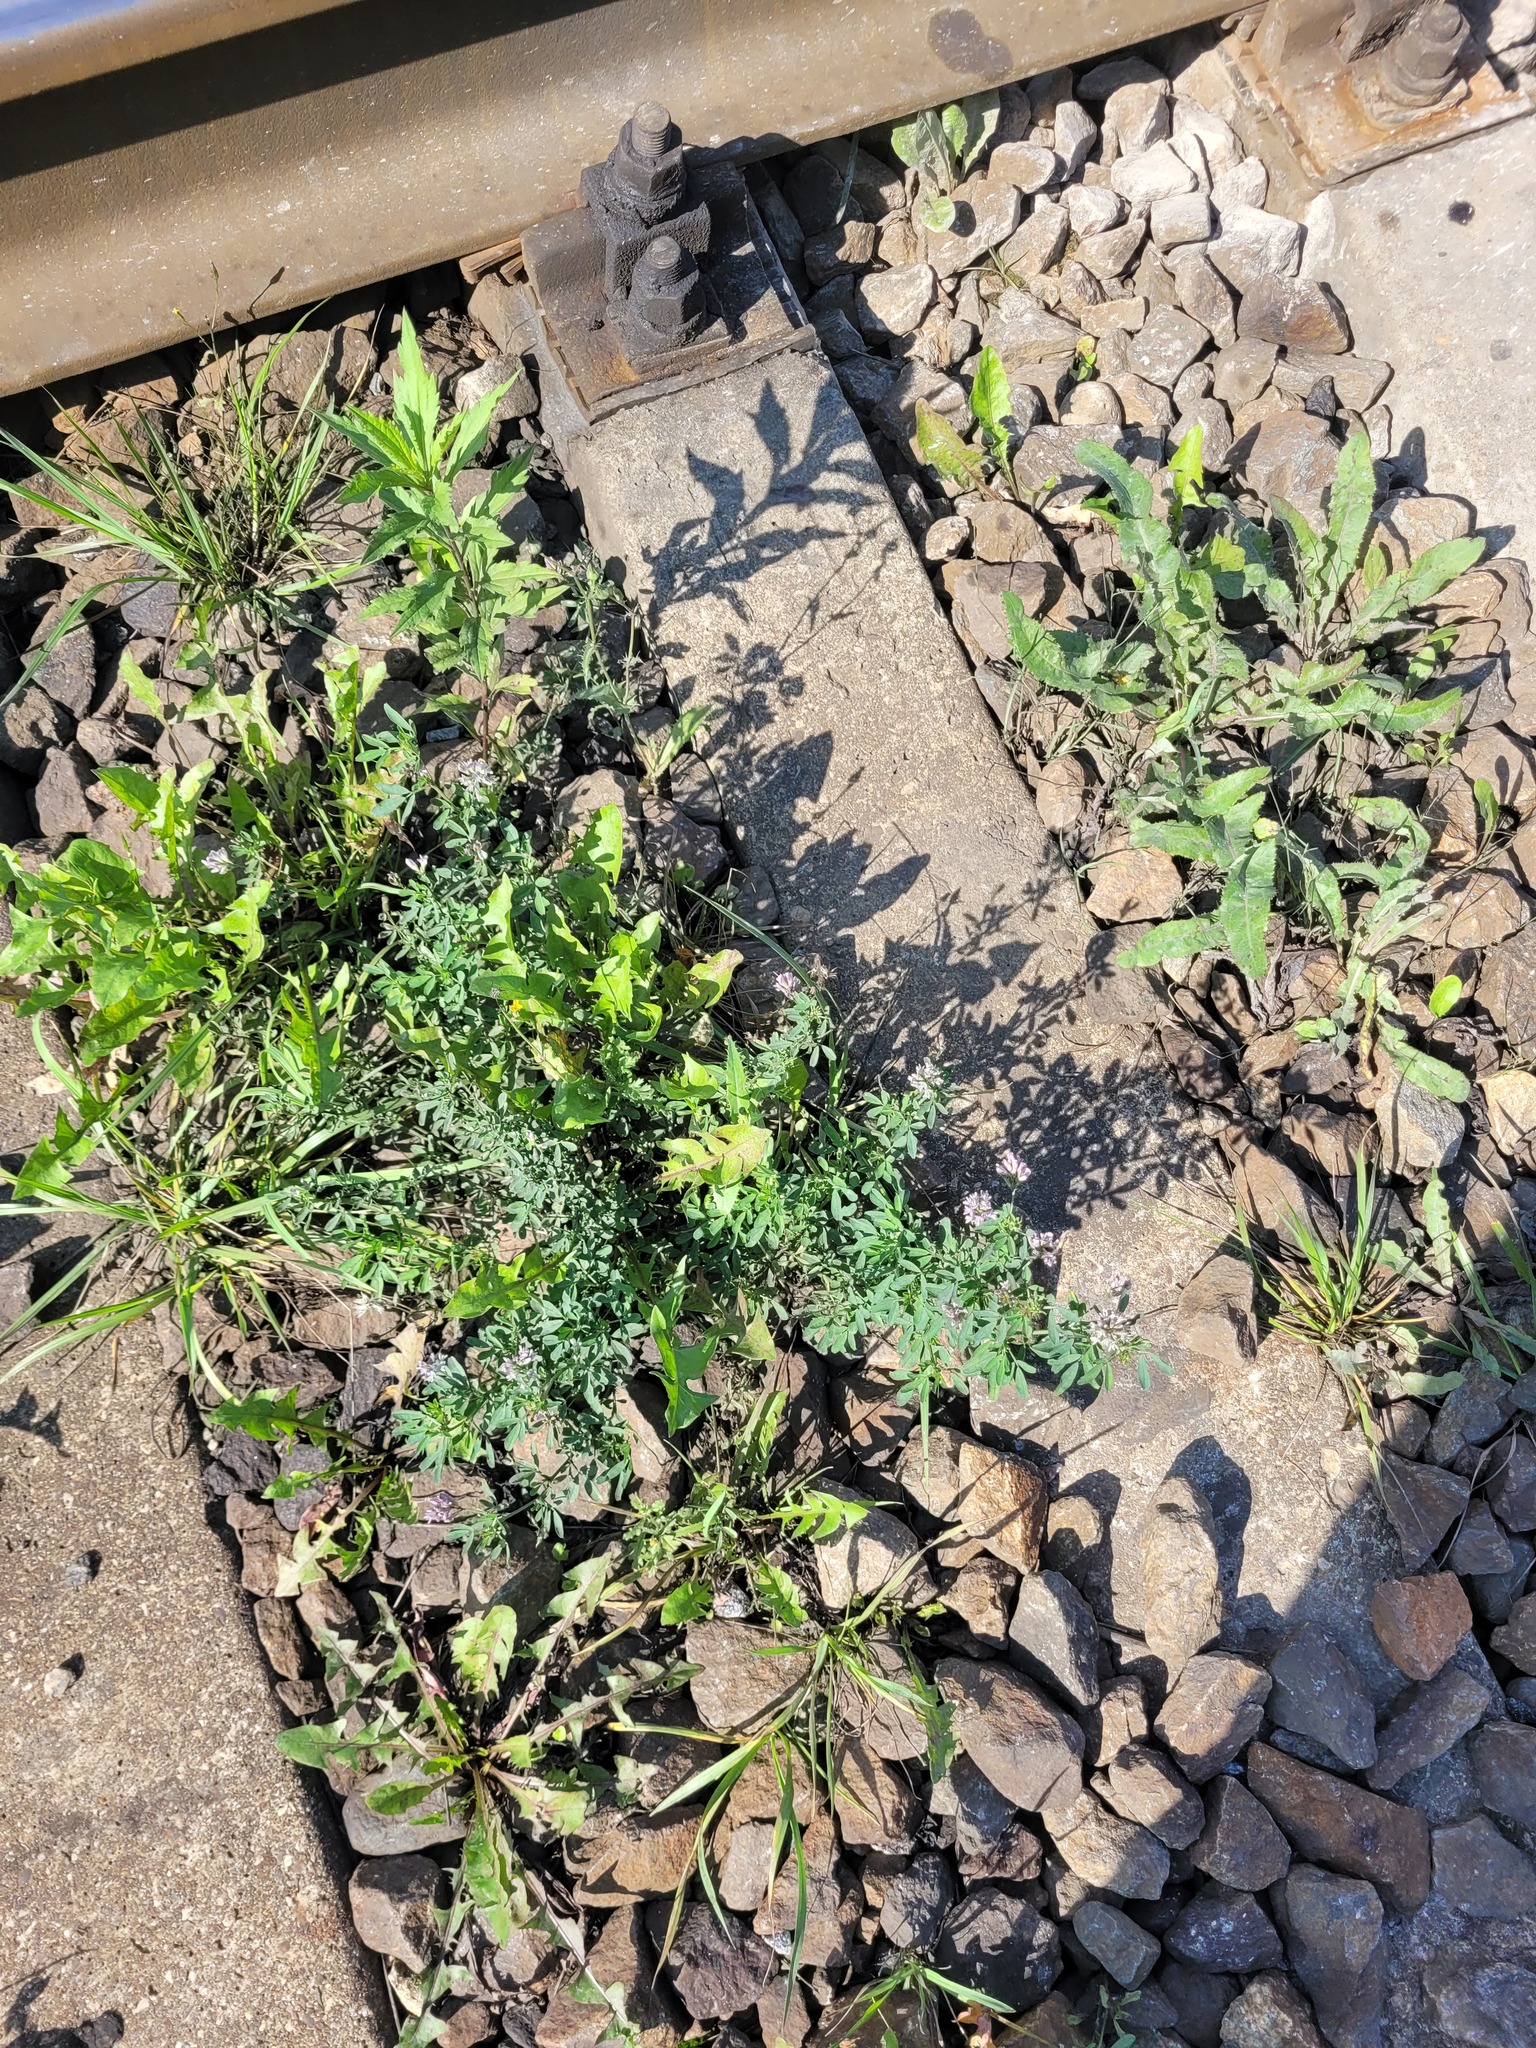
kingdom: Plantae
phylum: Tracheophyta
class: Magnoliopsida
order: Fabales
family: Fabaceae
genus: Medicago
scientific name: Medicago varia
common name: Sand lucerne
